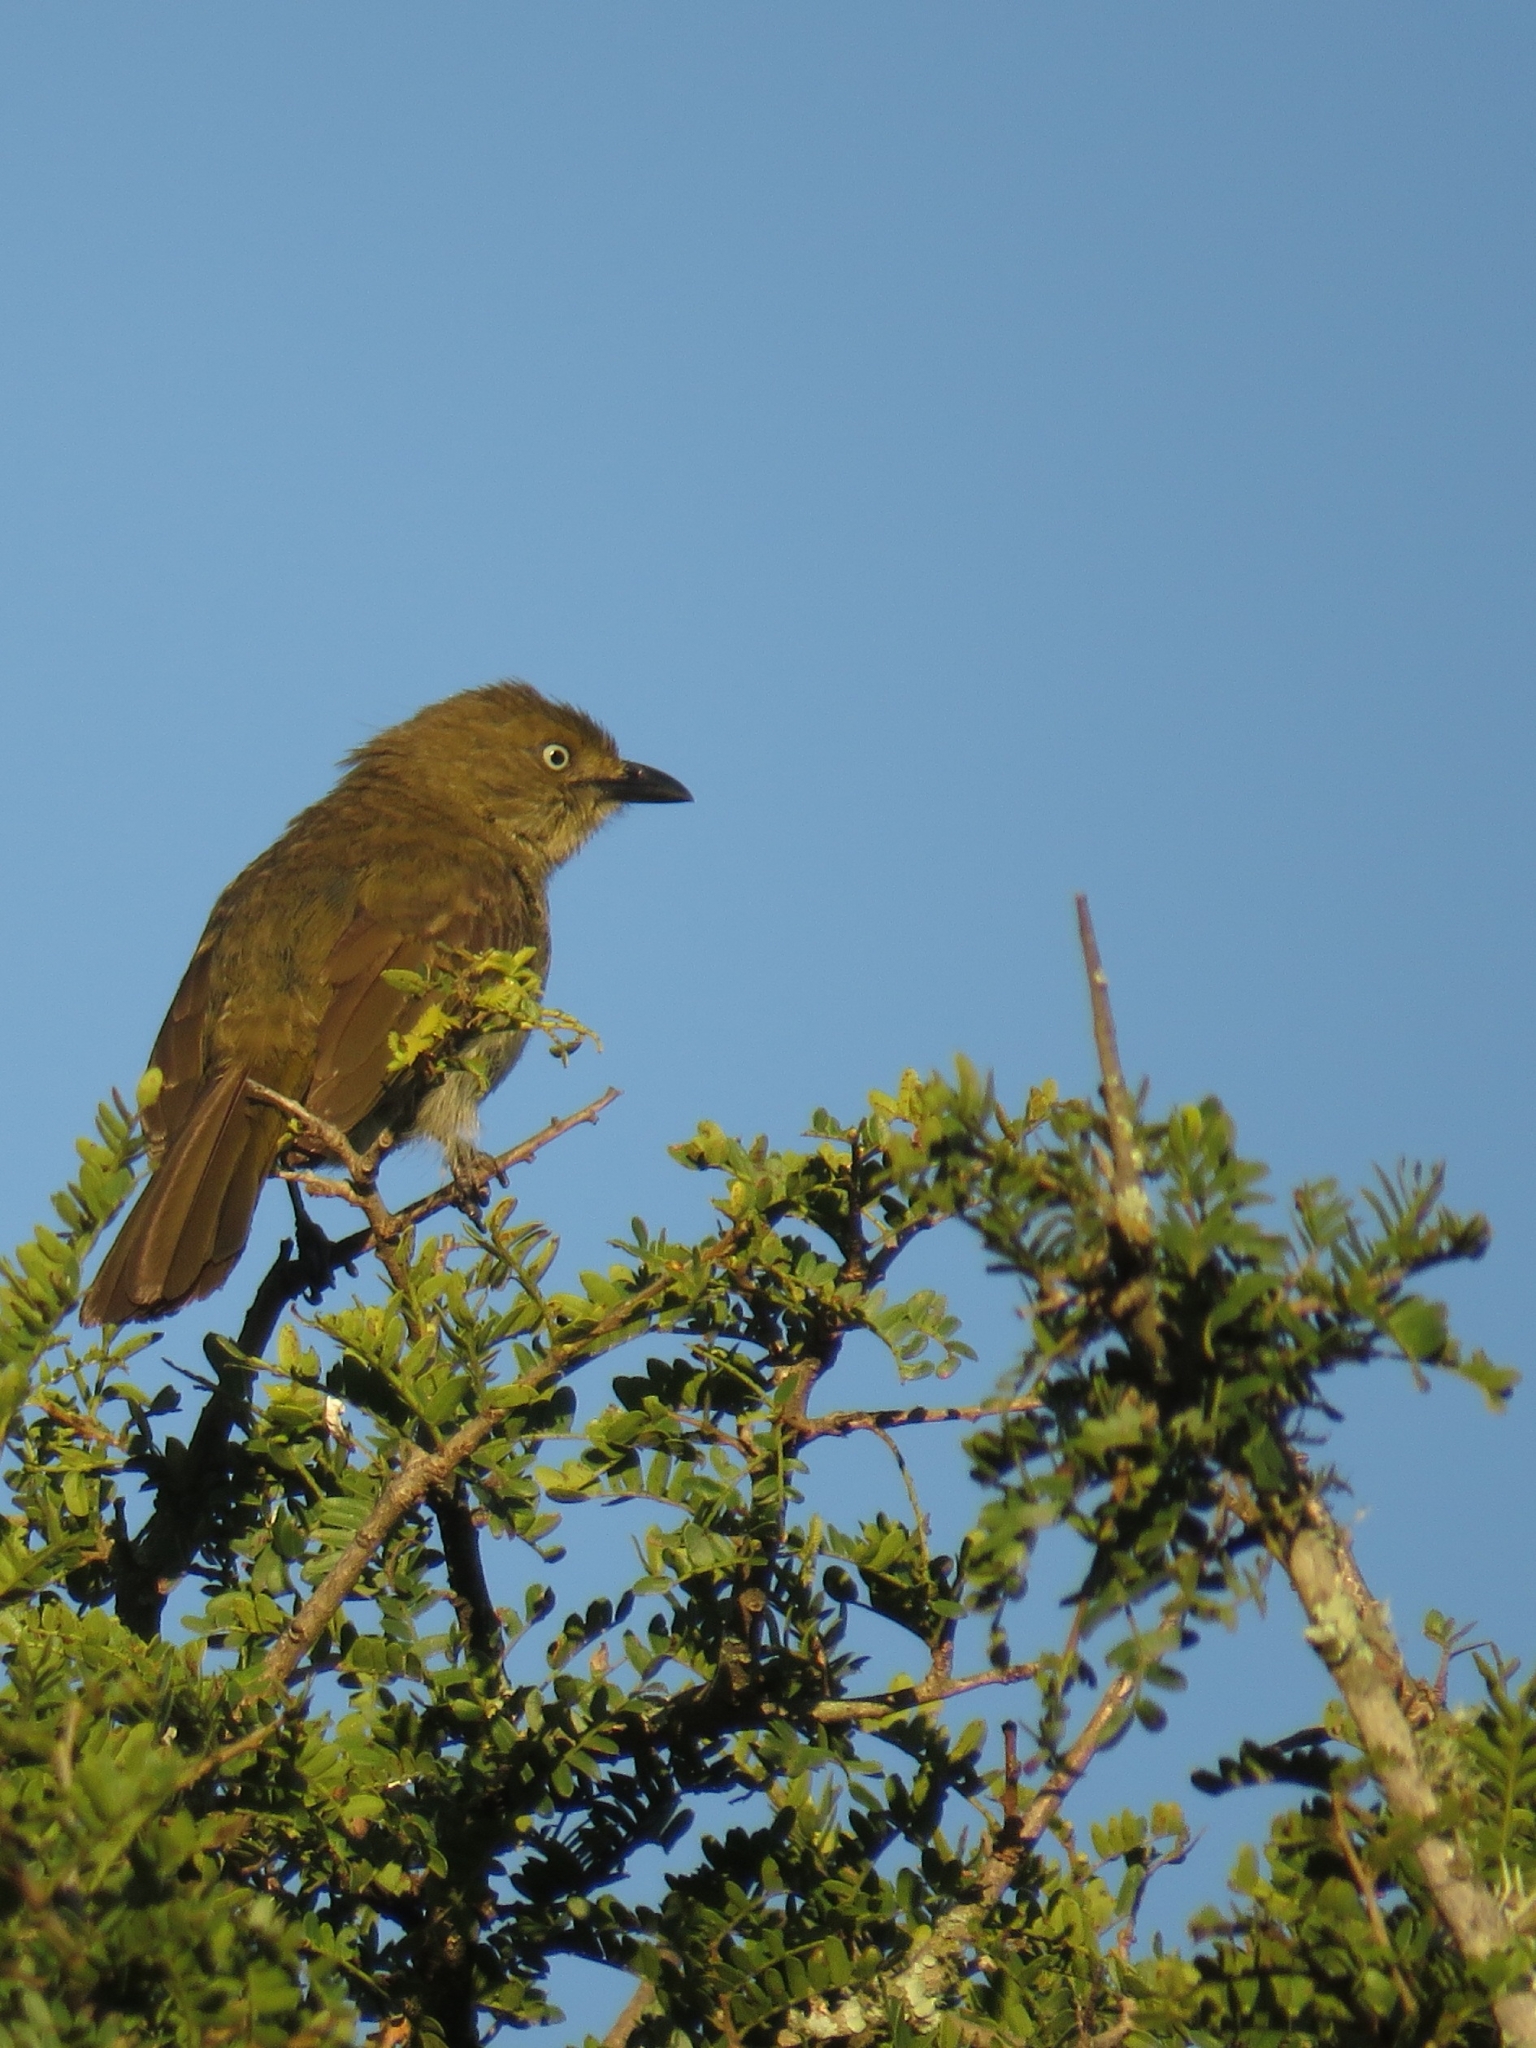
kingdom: Animalia
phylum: Chordata
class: Aves
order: Passeriformes
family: Pycnonotidae
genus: Andropadus
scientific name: Andropadus importunus
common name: Sombre greenbul
